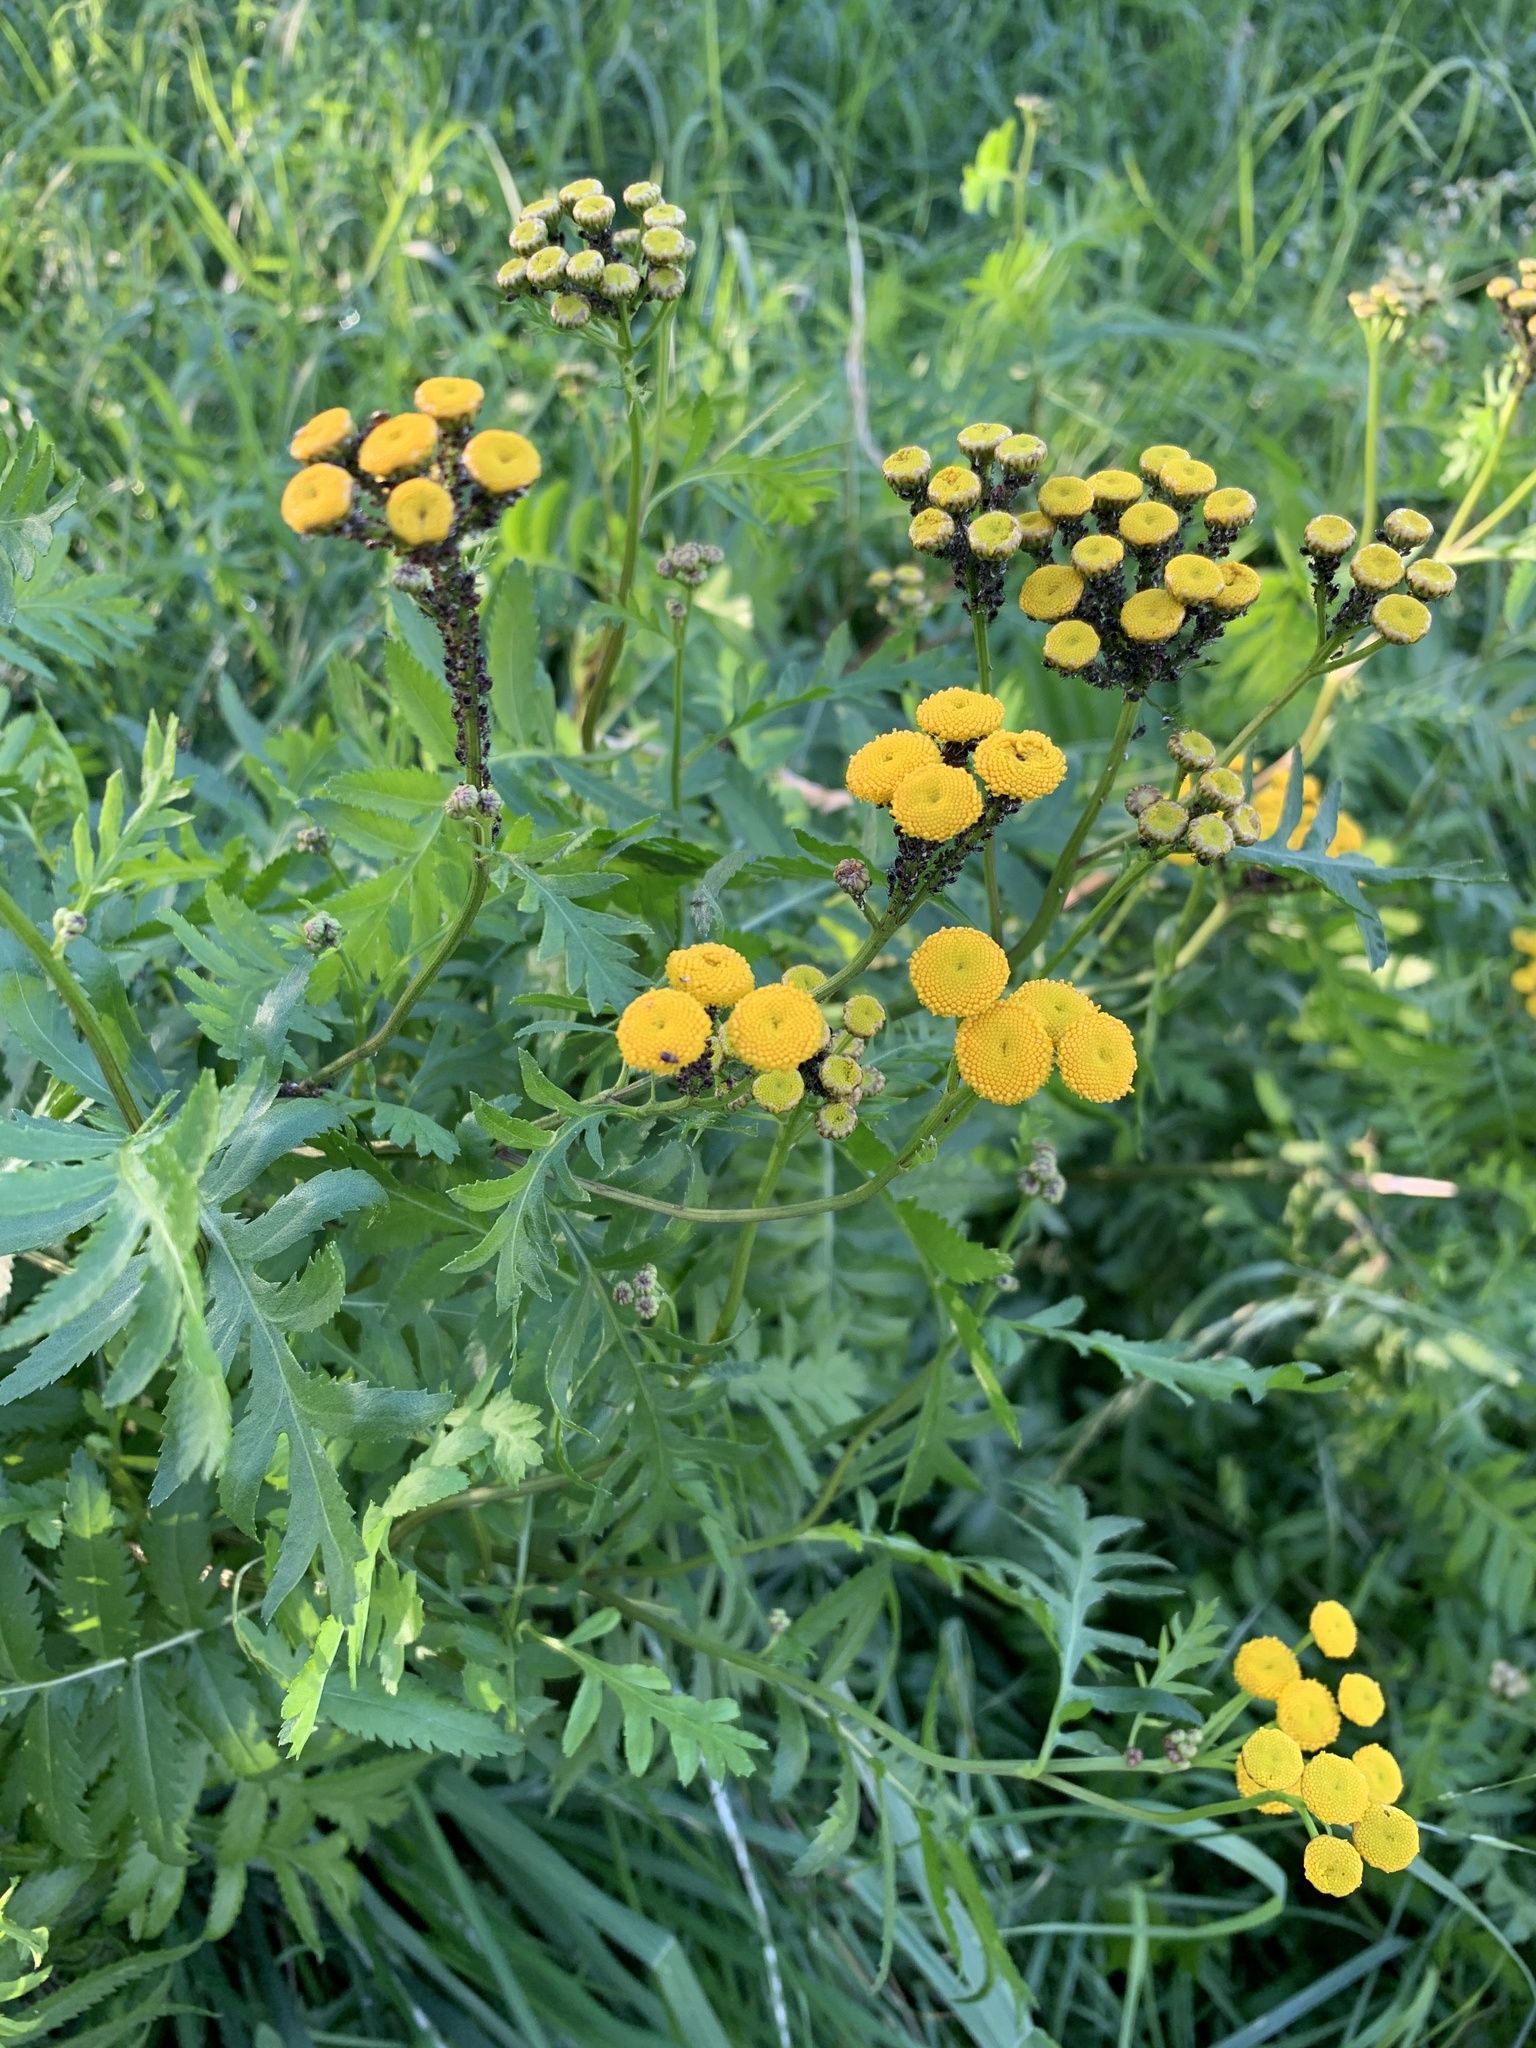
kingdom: Plantae
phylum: Tracheophyta
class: Magnoliopsida
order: Asterales
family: Asteraceae
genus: Tanacetum
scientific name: Tanacetum vulgare
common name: Common tansy
